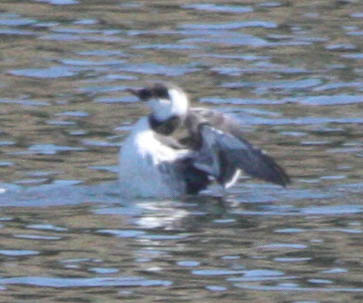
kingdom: Animalia
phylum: Chordata
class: Aves
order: Charadriiformes
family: Alcidae
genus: Uria
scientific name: Uria aalge
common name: Common murre
